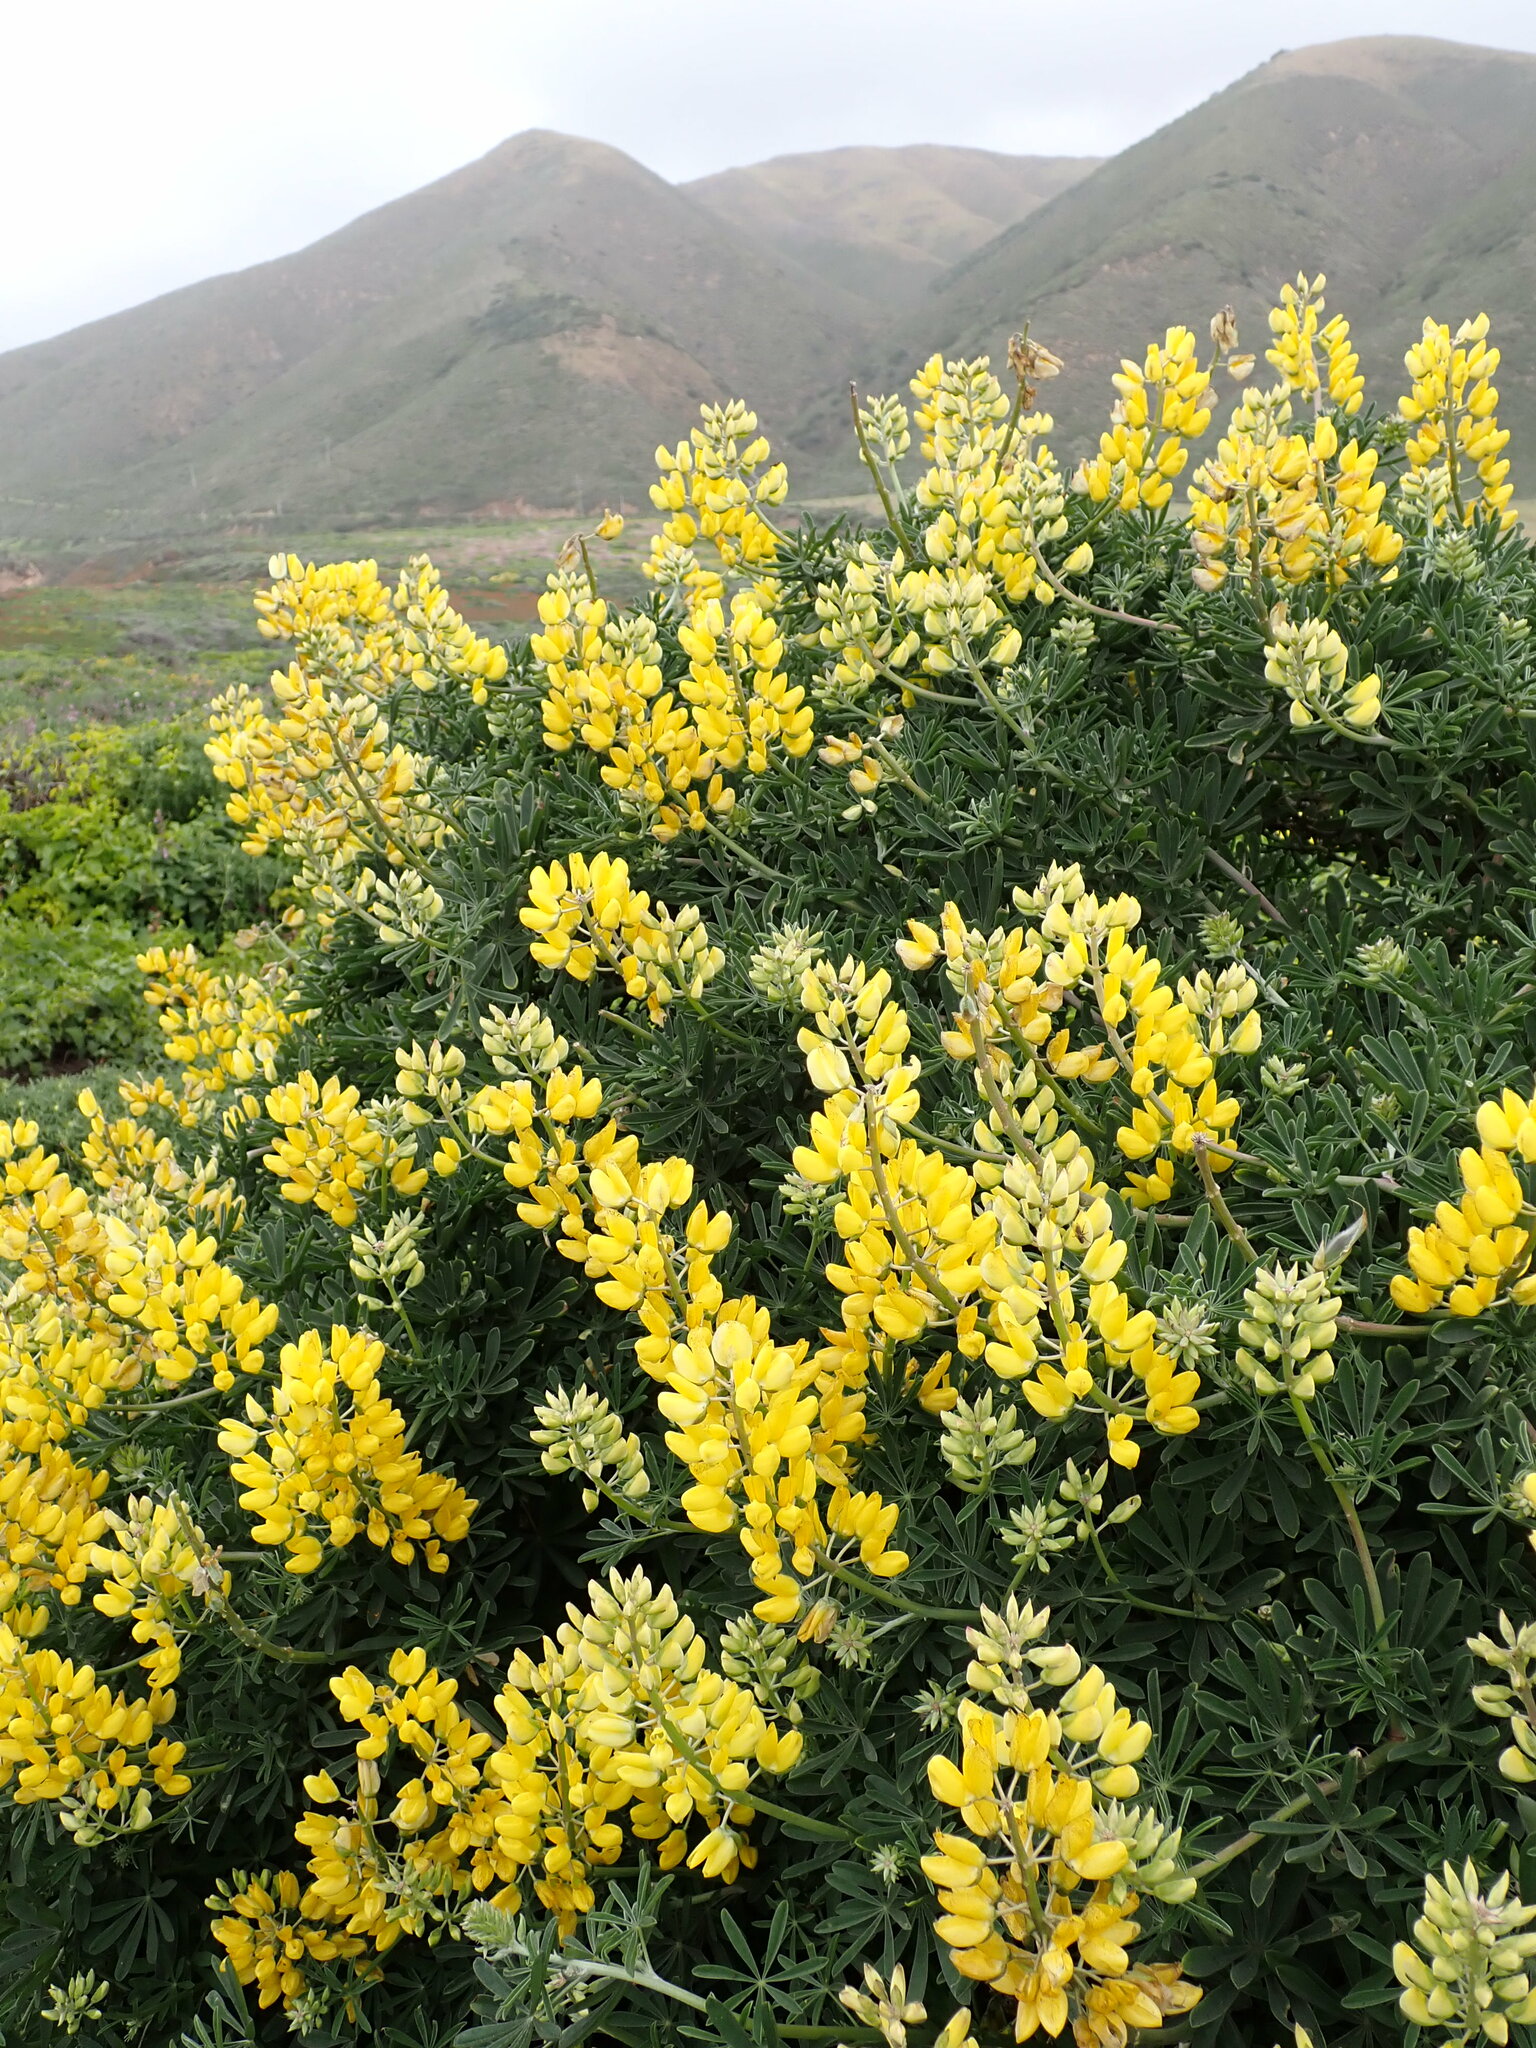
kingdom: Plantae
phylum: Tracheophyta
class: Magnoliopsida
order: Fabales
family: Fabaceae
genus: Lupinus
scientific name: Lupinus arboreus
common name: Yellow bush lupine
